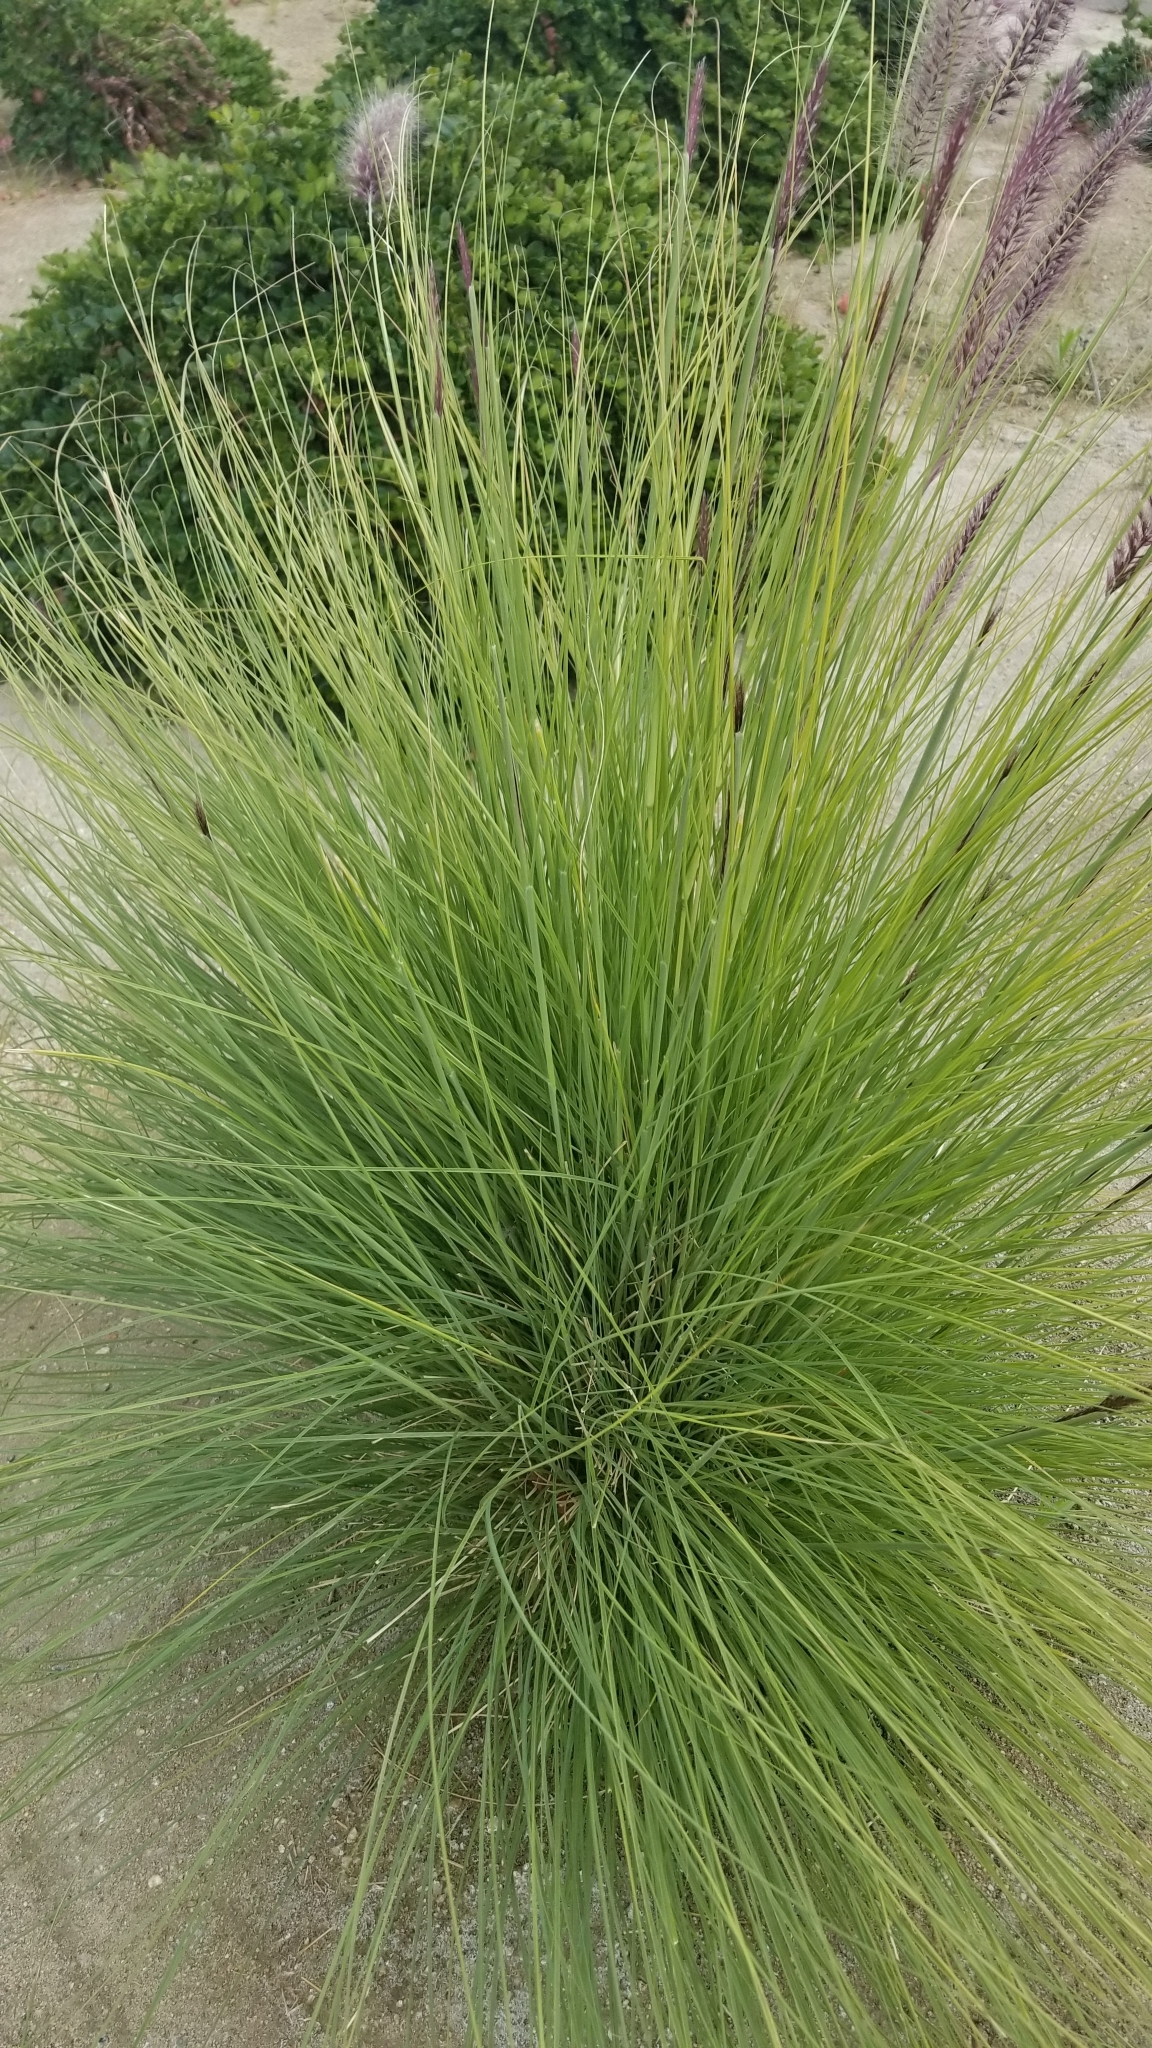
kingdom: Plantae
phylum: Tracheophyta
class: Liliopsida
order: Poales
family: Poaceae
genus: Cenchrus
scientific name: Cenchrus setaceus
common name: Crimson fountaingrass
